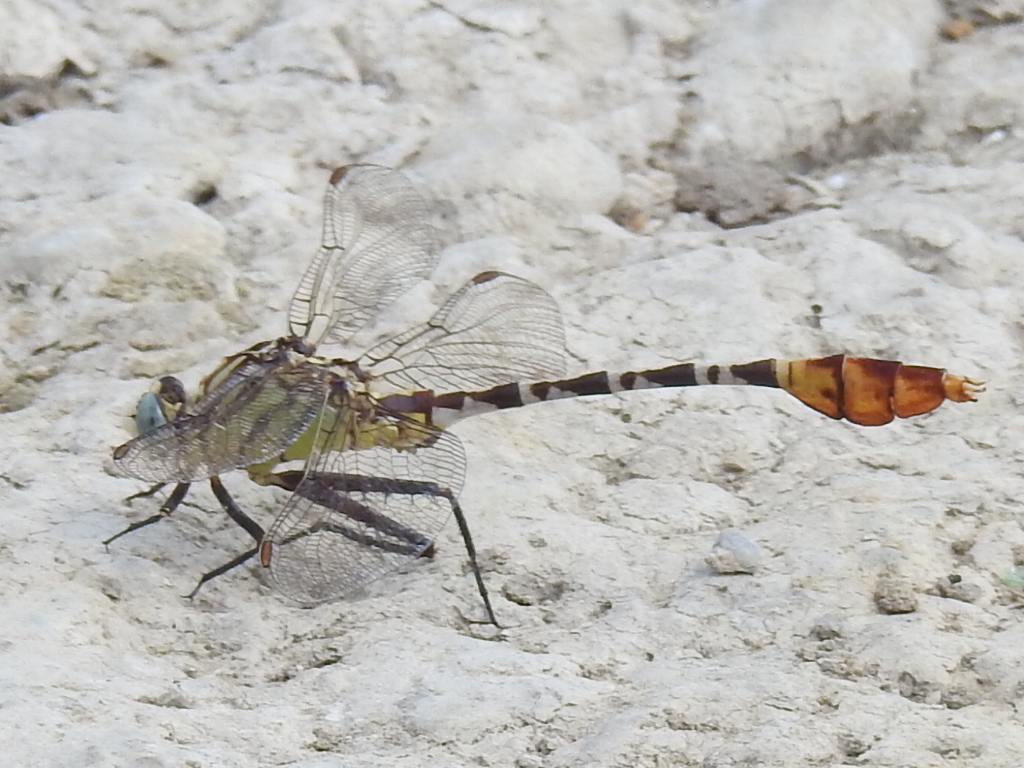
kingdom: Animalia
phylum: Arthropoda
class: Insecta
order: Odonata
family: Gomphidae
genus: Dromogomphus
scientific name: Dromogomphus spoliatus
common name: Flag-tailed spinyleg
